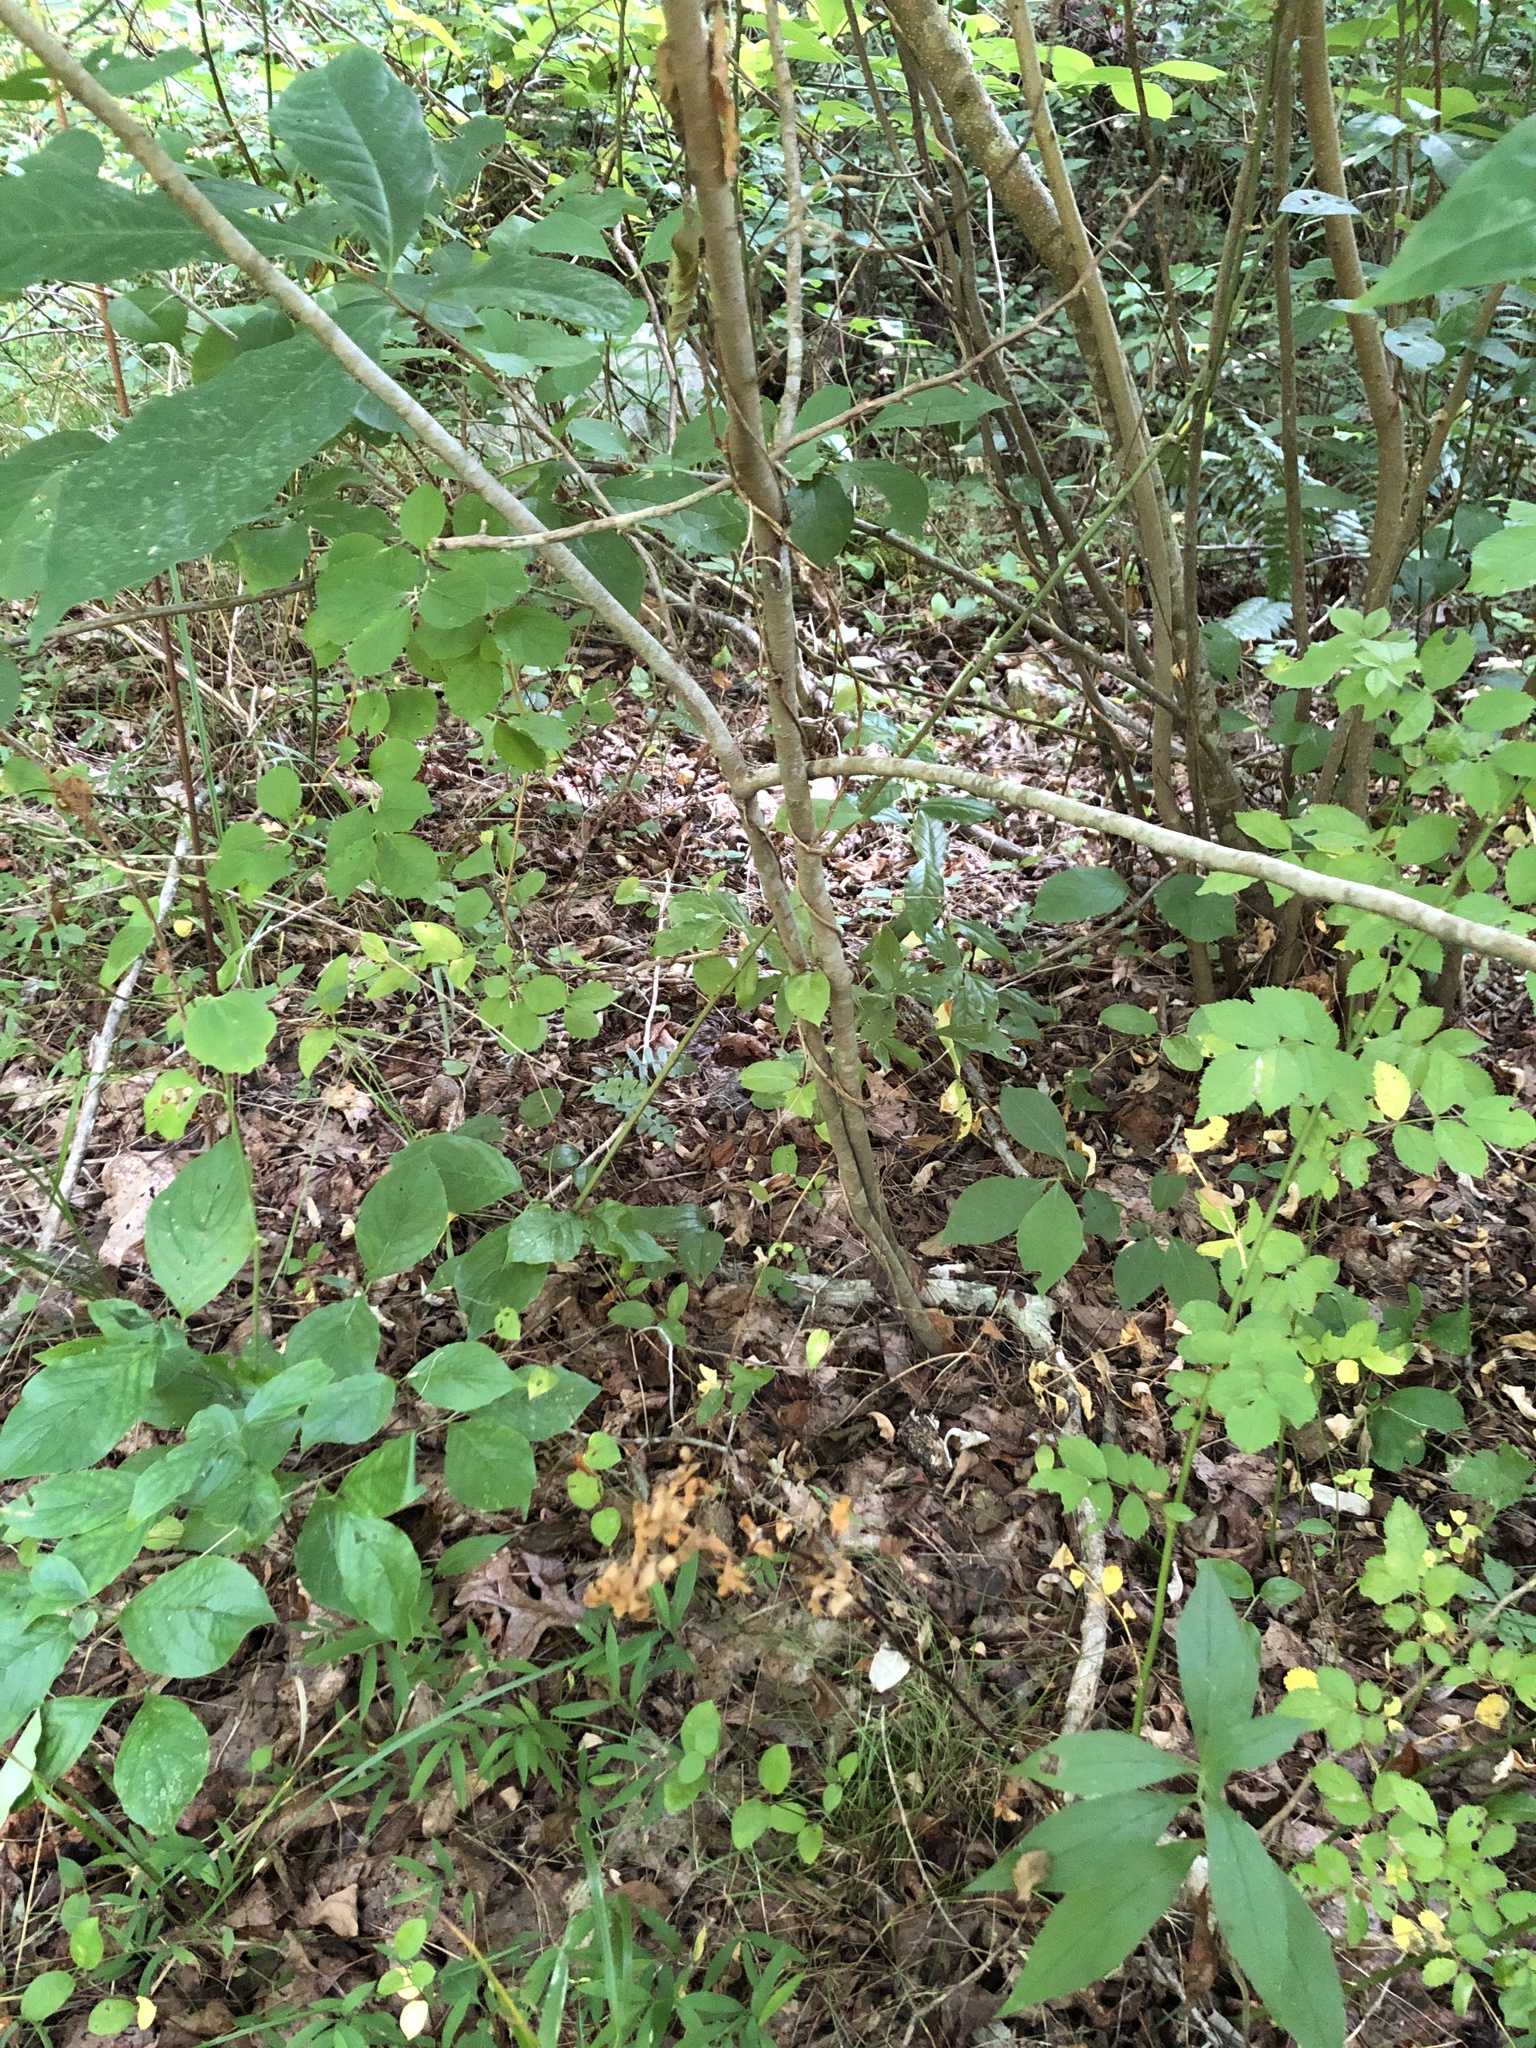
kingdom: Plantae
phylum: Tracheophyta
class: Magnoliopsida
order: Magnoliales
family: Annonaceae
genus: Asimina
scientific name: Asimina triloba
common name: Dog-banana
